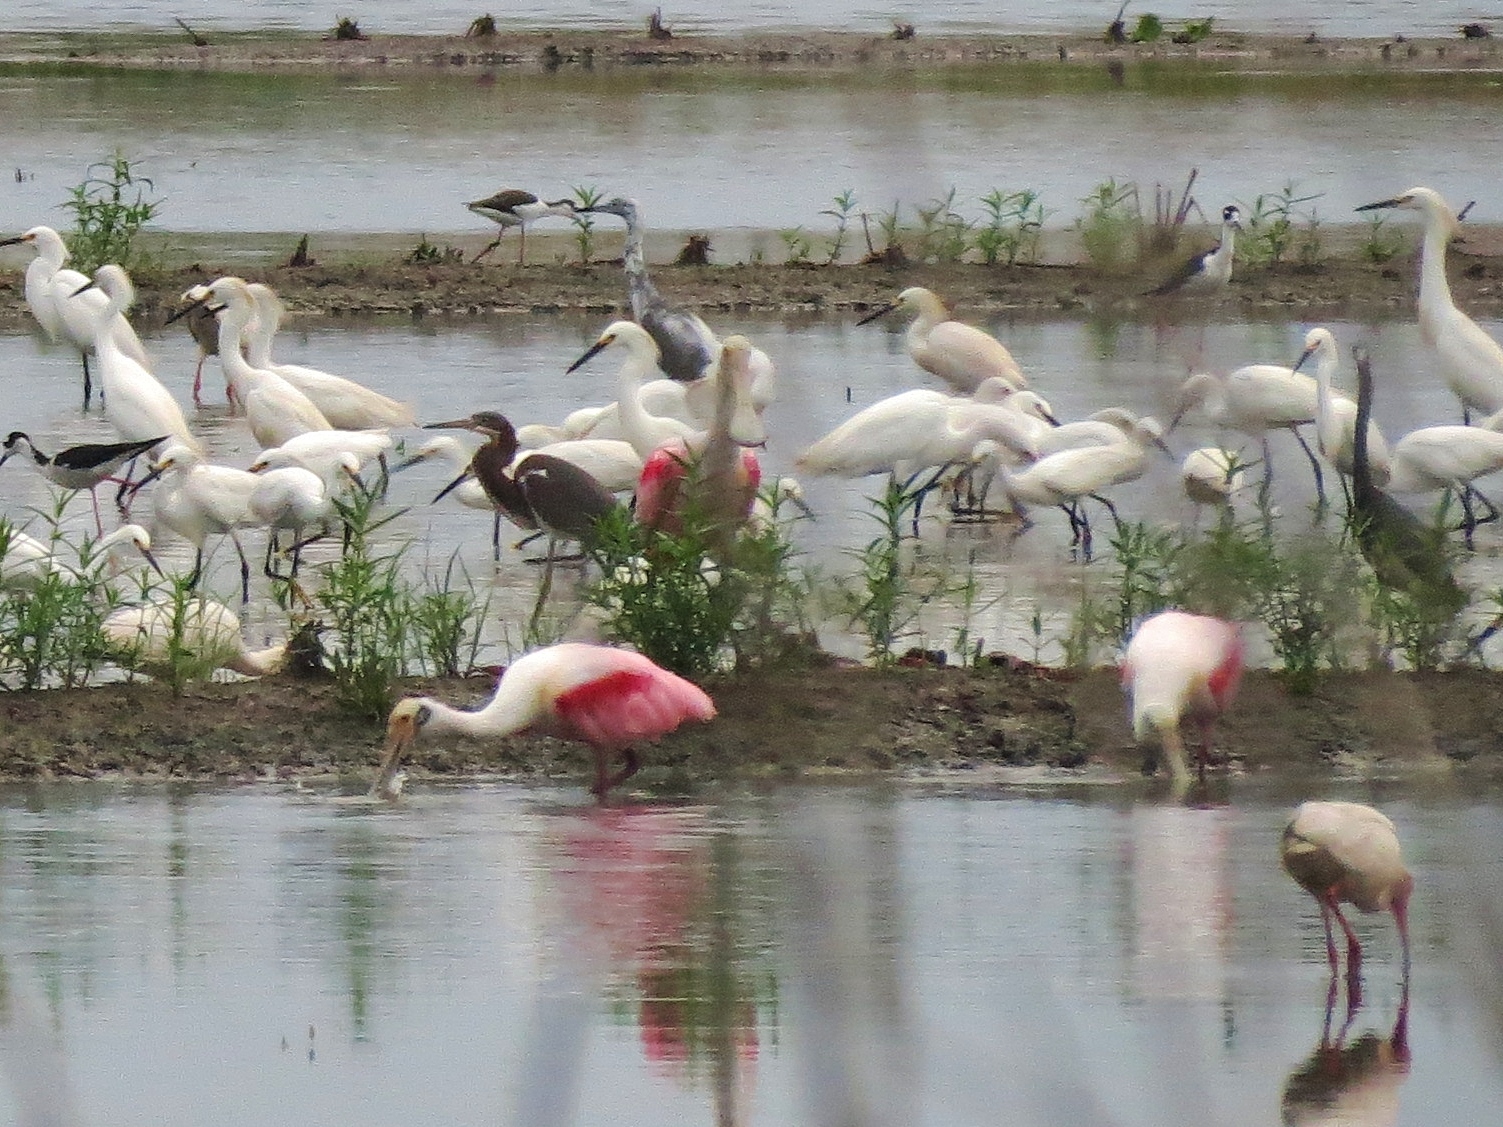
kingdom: Animalia
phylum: Chordata
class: Aves
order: Pelecaniformes
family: Threskiornithidae
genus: Platalea
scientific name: Platalea ajaja
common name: Roseate spoonbill
